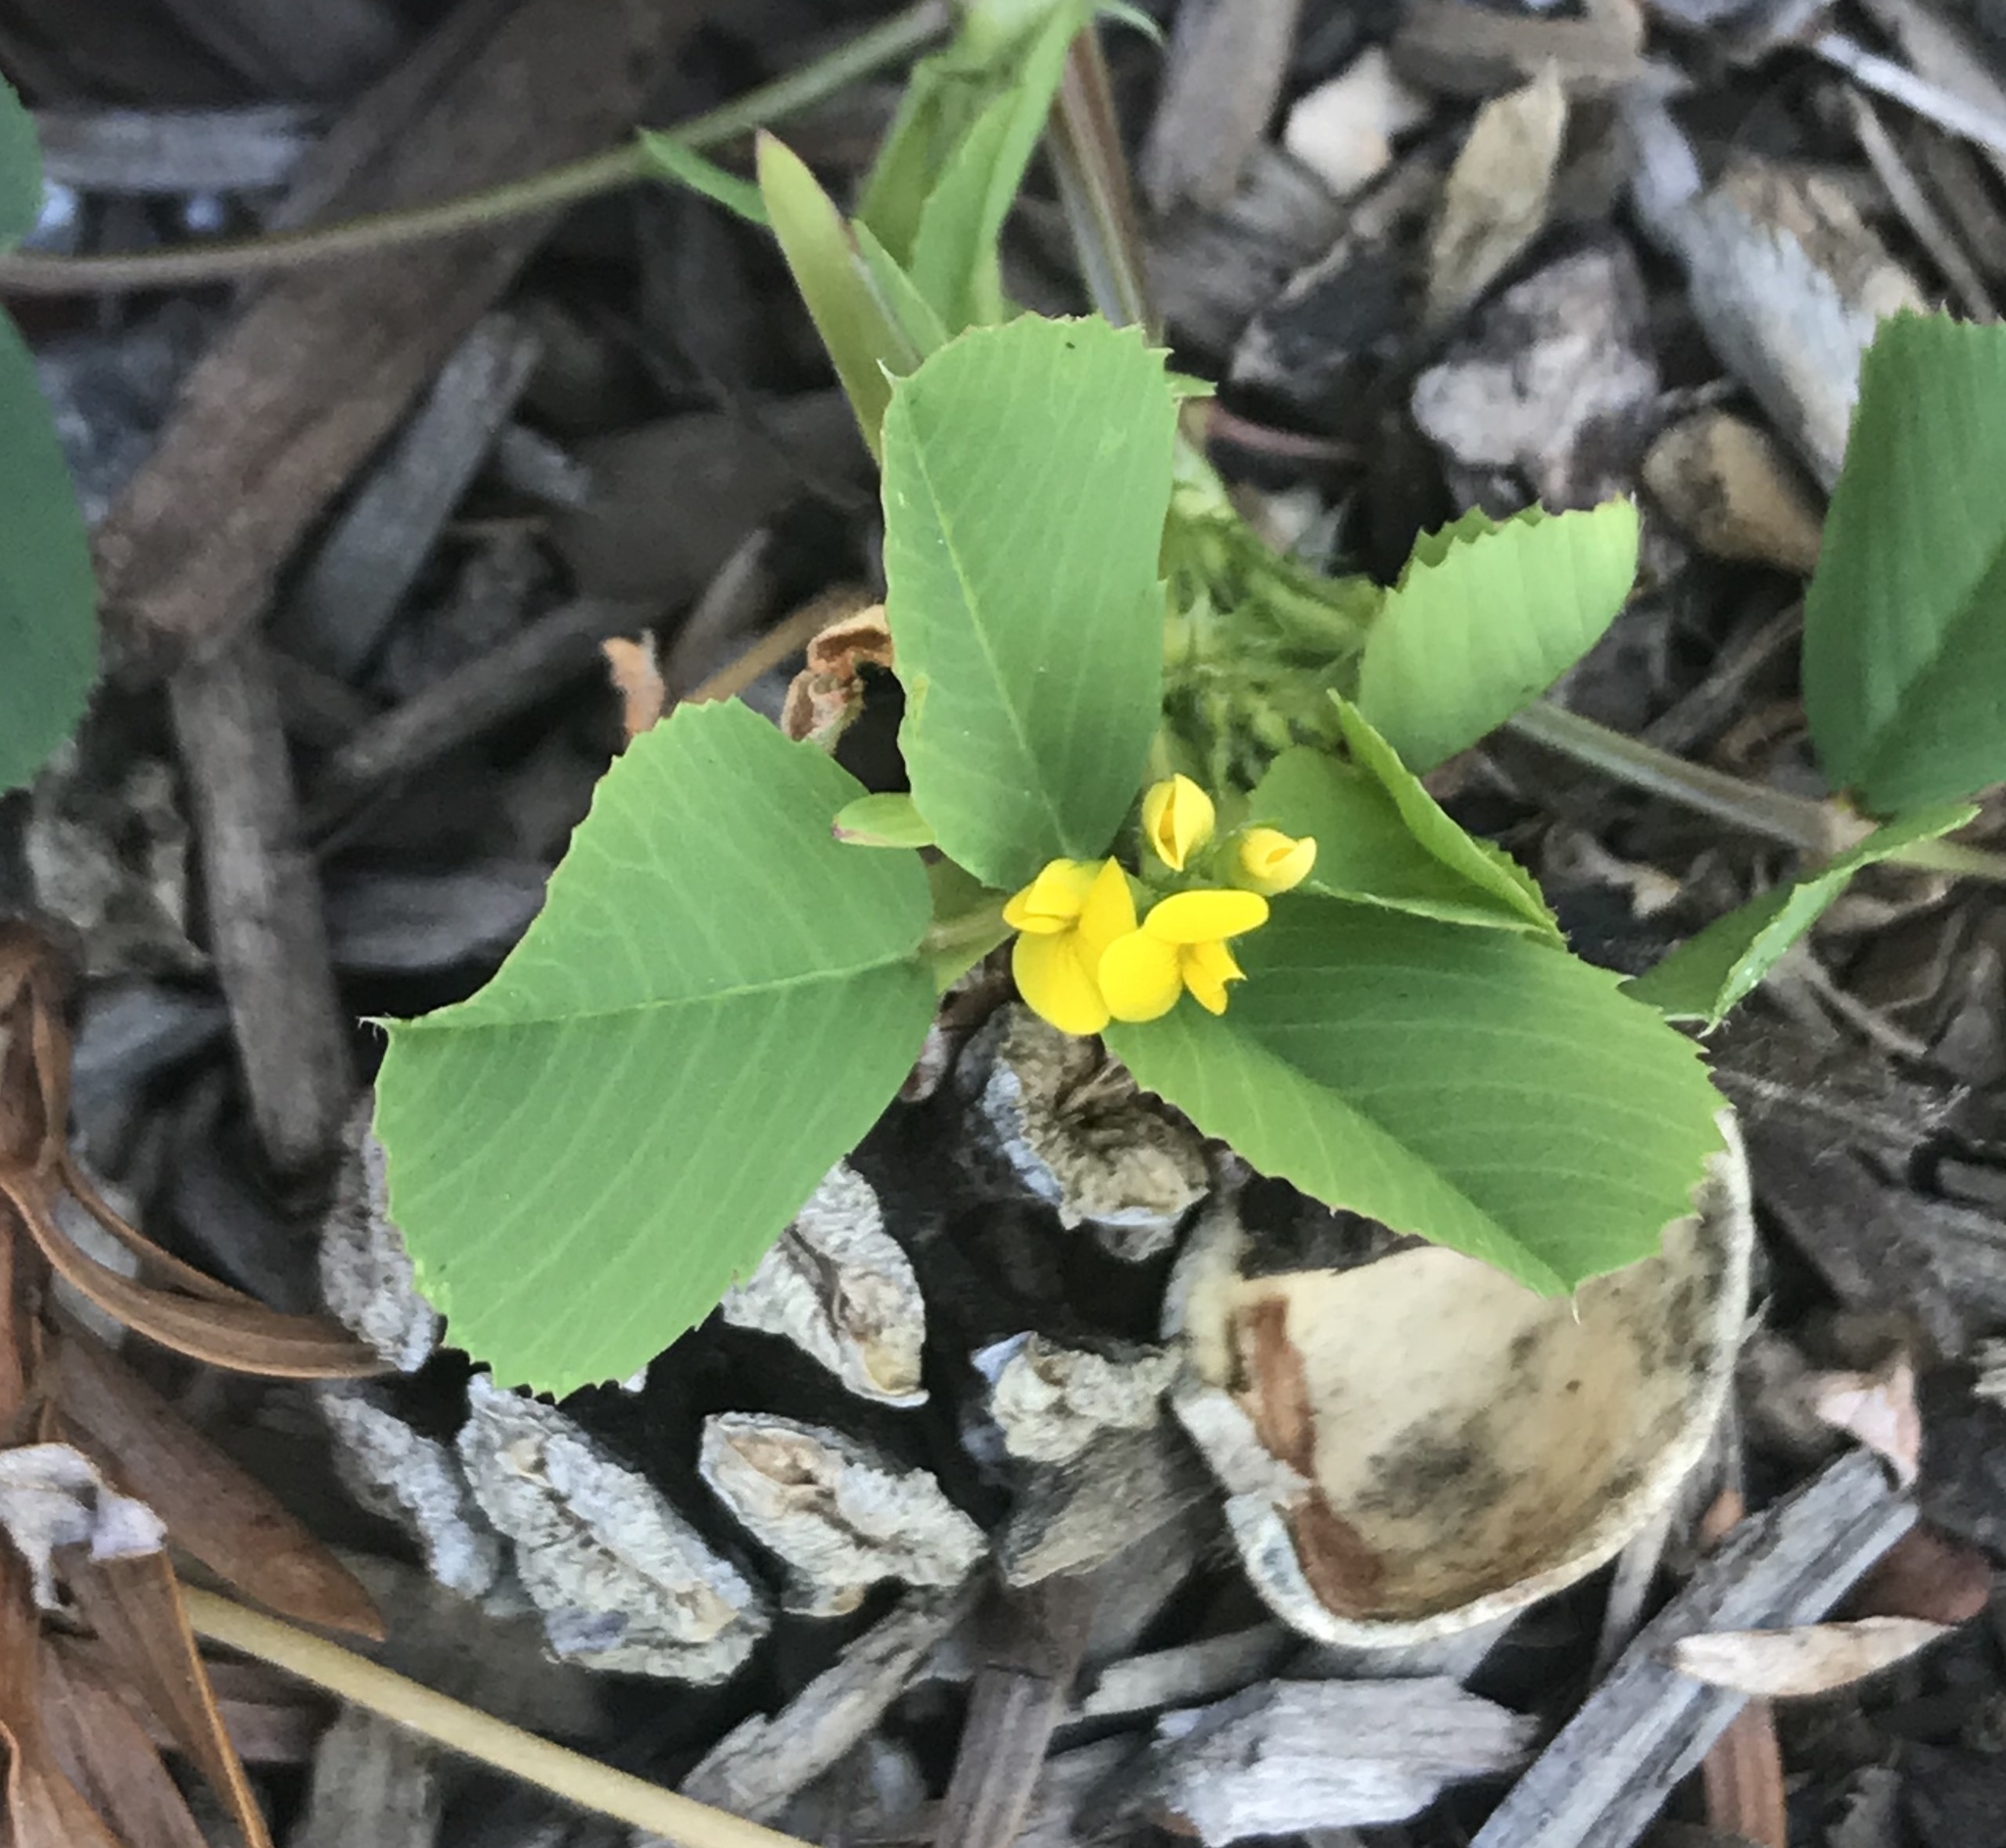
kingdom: Plantae
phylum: Tracheophyta
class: Magnoliopsida
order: Fabales
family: Fabaceae
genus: Medicago
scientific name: Medicago polymorpha
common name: Burclover
